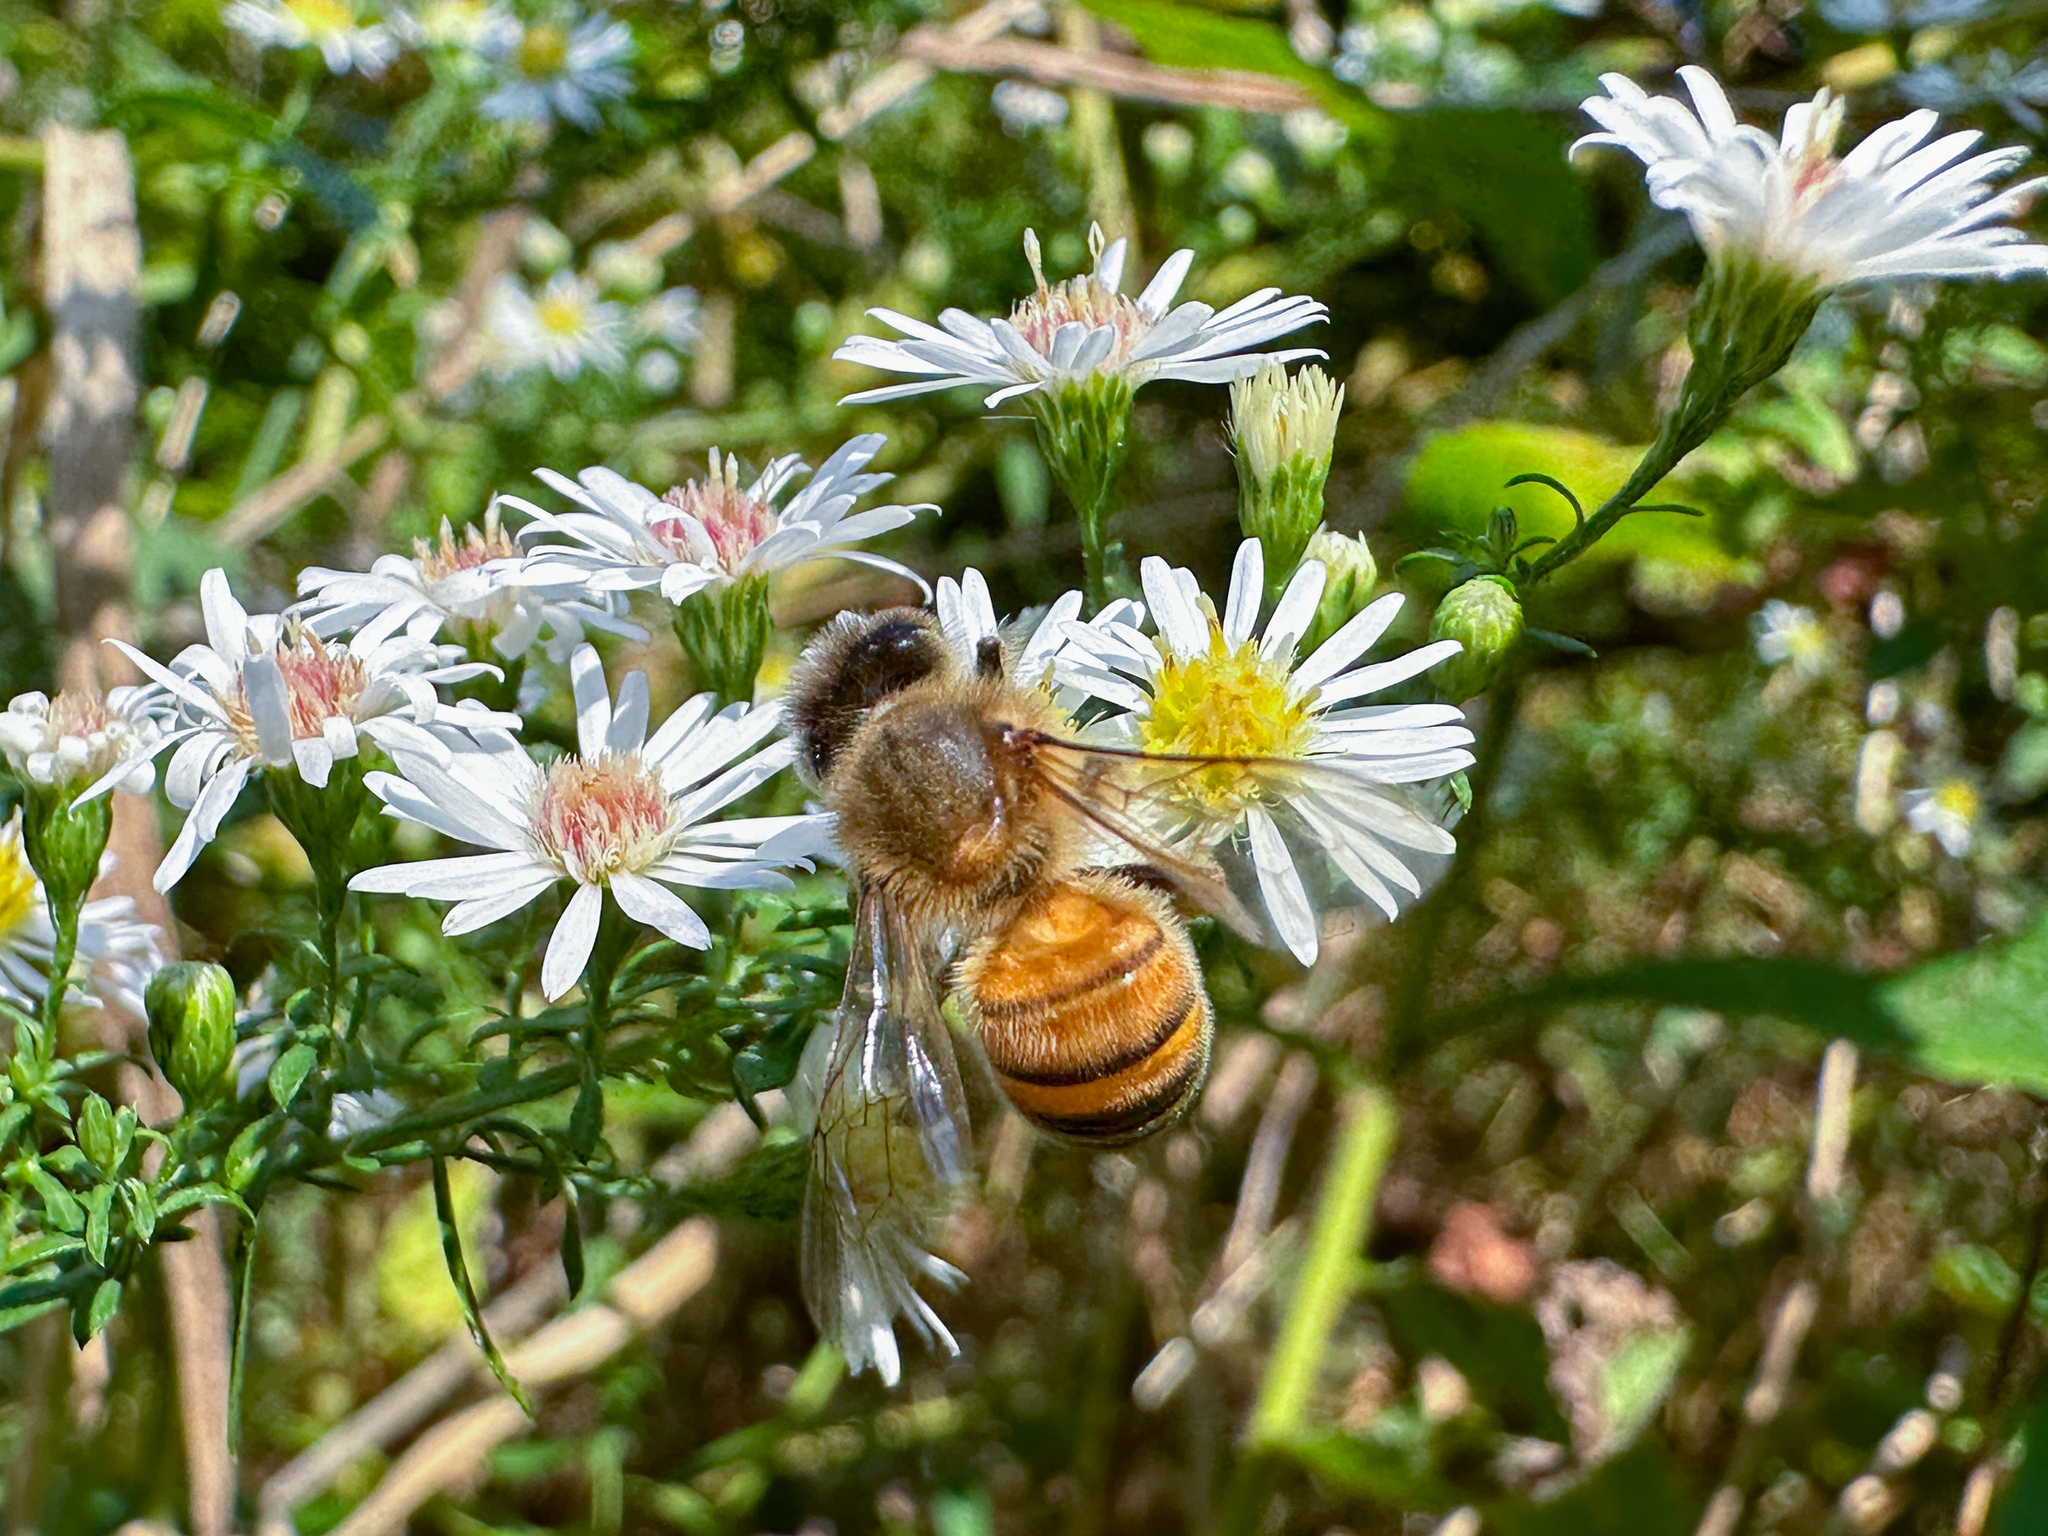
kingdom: Animalia
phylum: Arthropoda
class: Insecta
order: Hymenoptera
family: Apidae
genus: Apis
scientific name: Apis mellifera
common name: Honey bee
